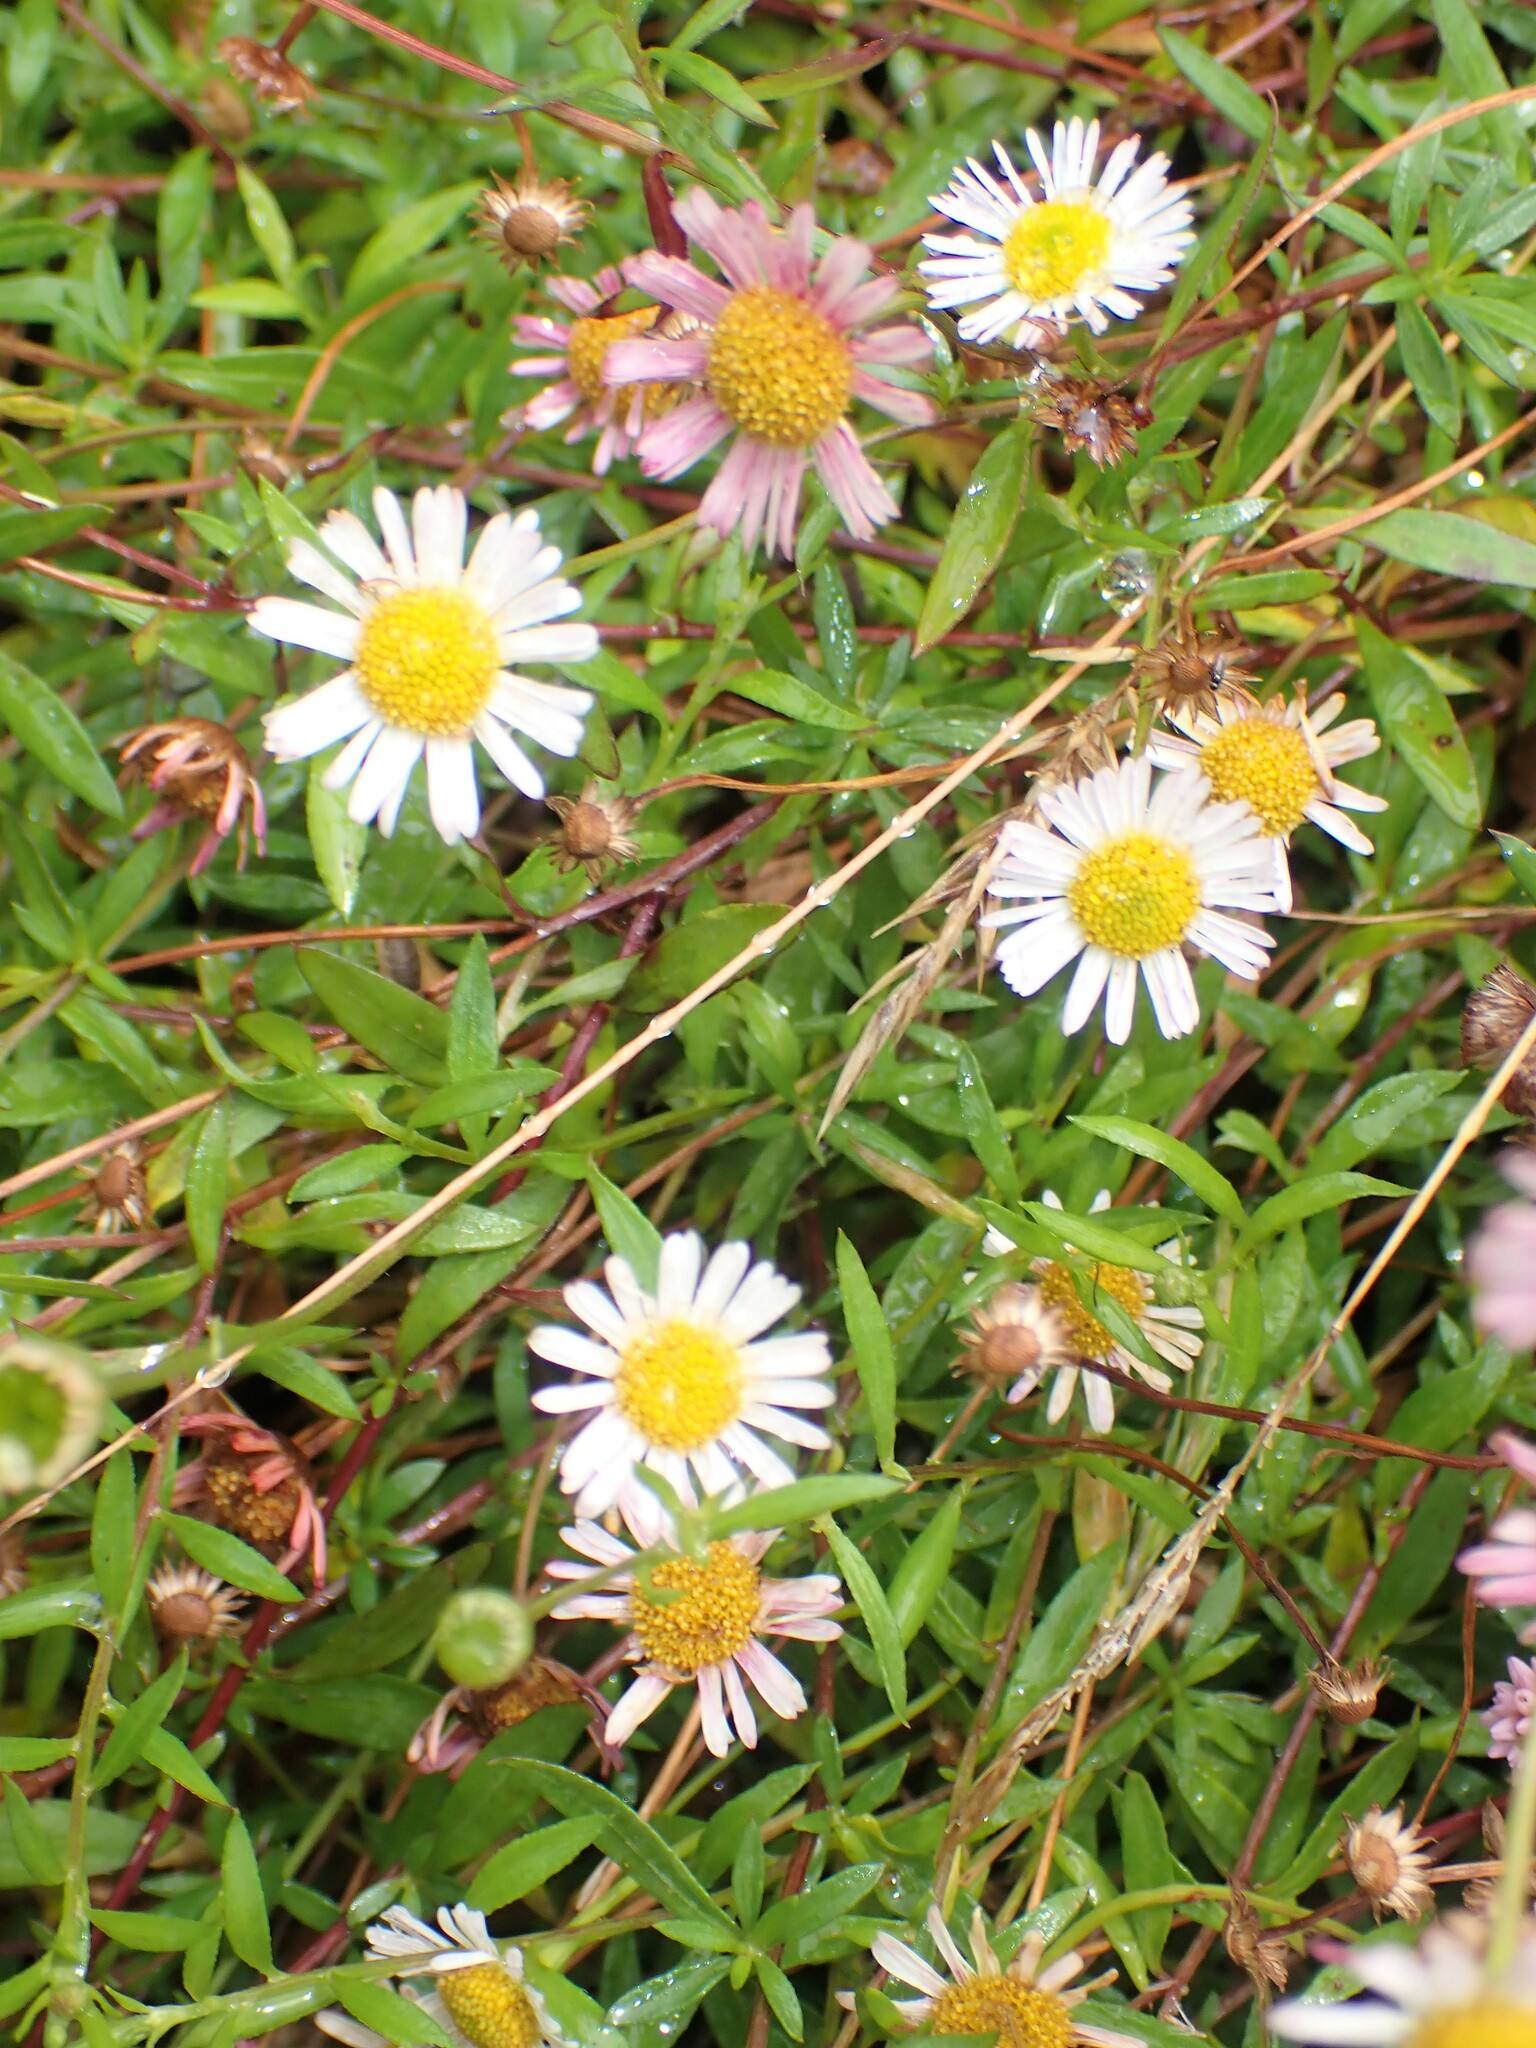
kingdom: Plantae
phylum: Tracheophyta
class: Magnoliopsida
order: Asterales
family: Asteraceae
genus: Erigeron
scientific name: Erigeron karvinskianus
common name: Mexican fleabane
